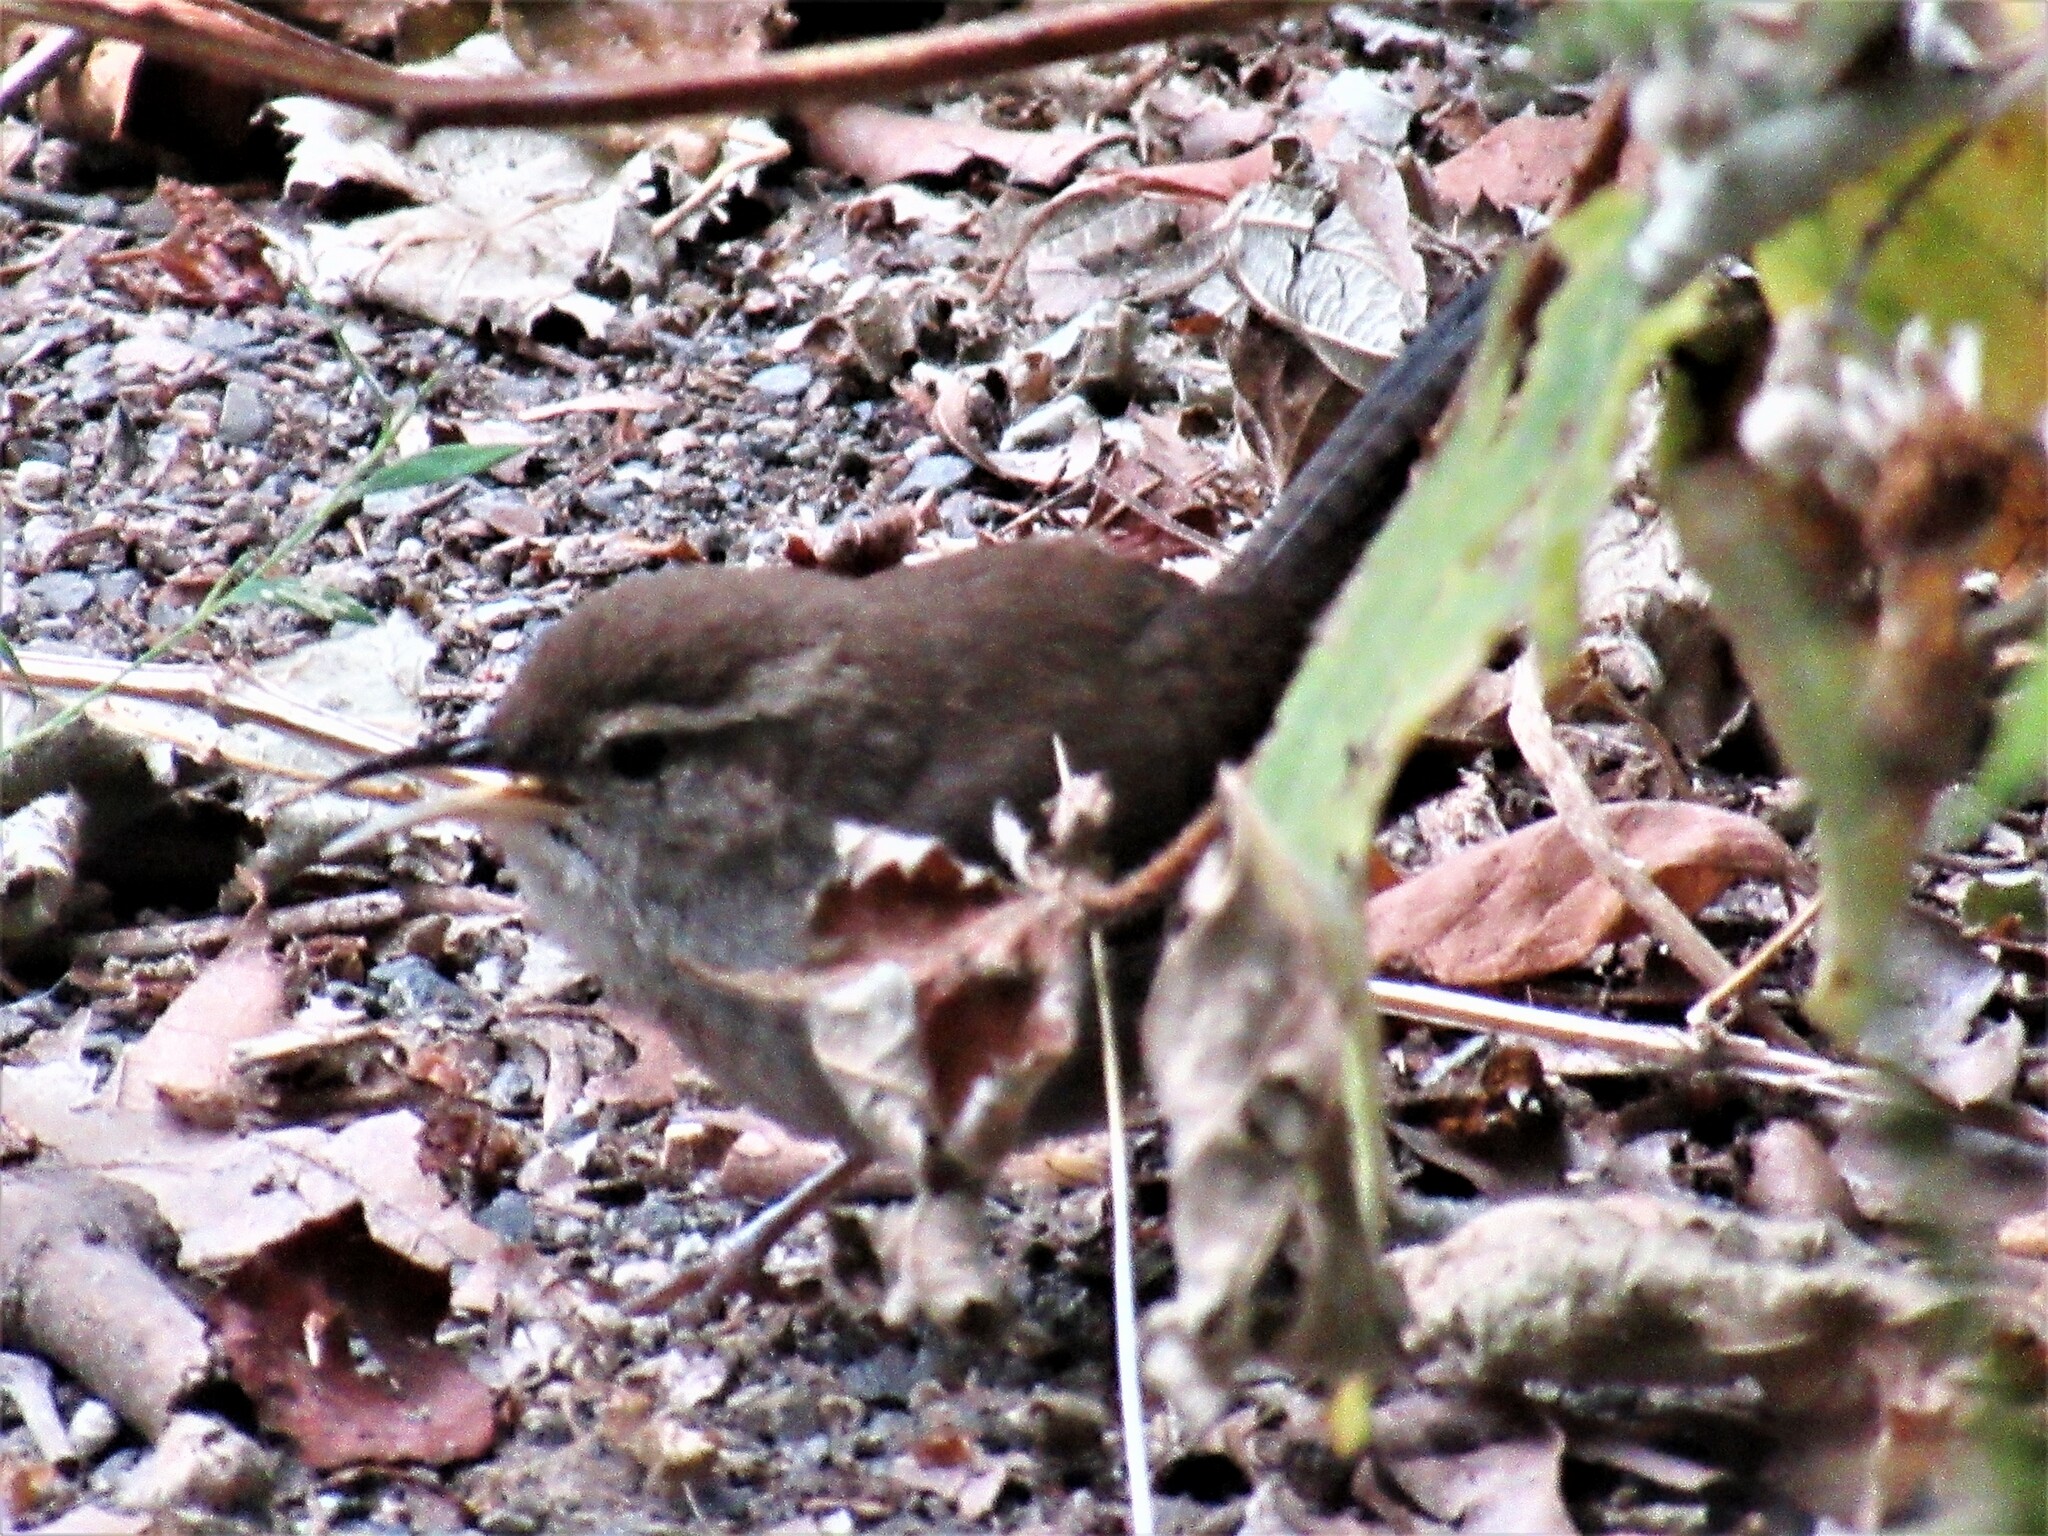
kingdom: Animalia
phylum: Chordata
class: Aves
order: Passeriformes
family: Troglodytidae
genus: Thryomanes
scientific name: Thryomanes bewickii
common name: Bewick's wren
